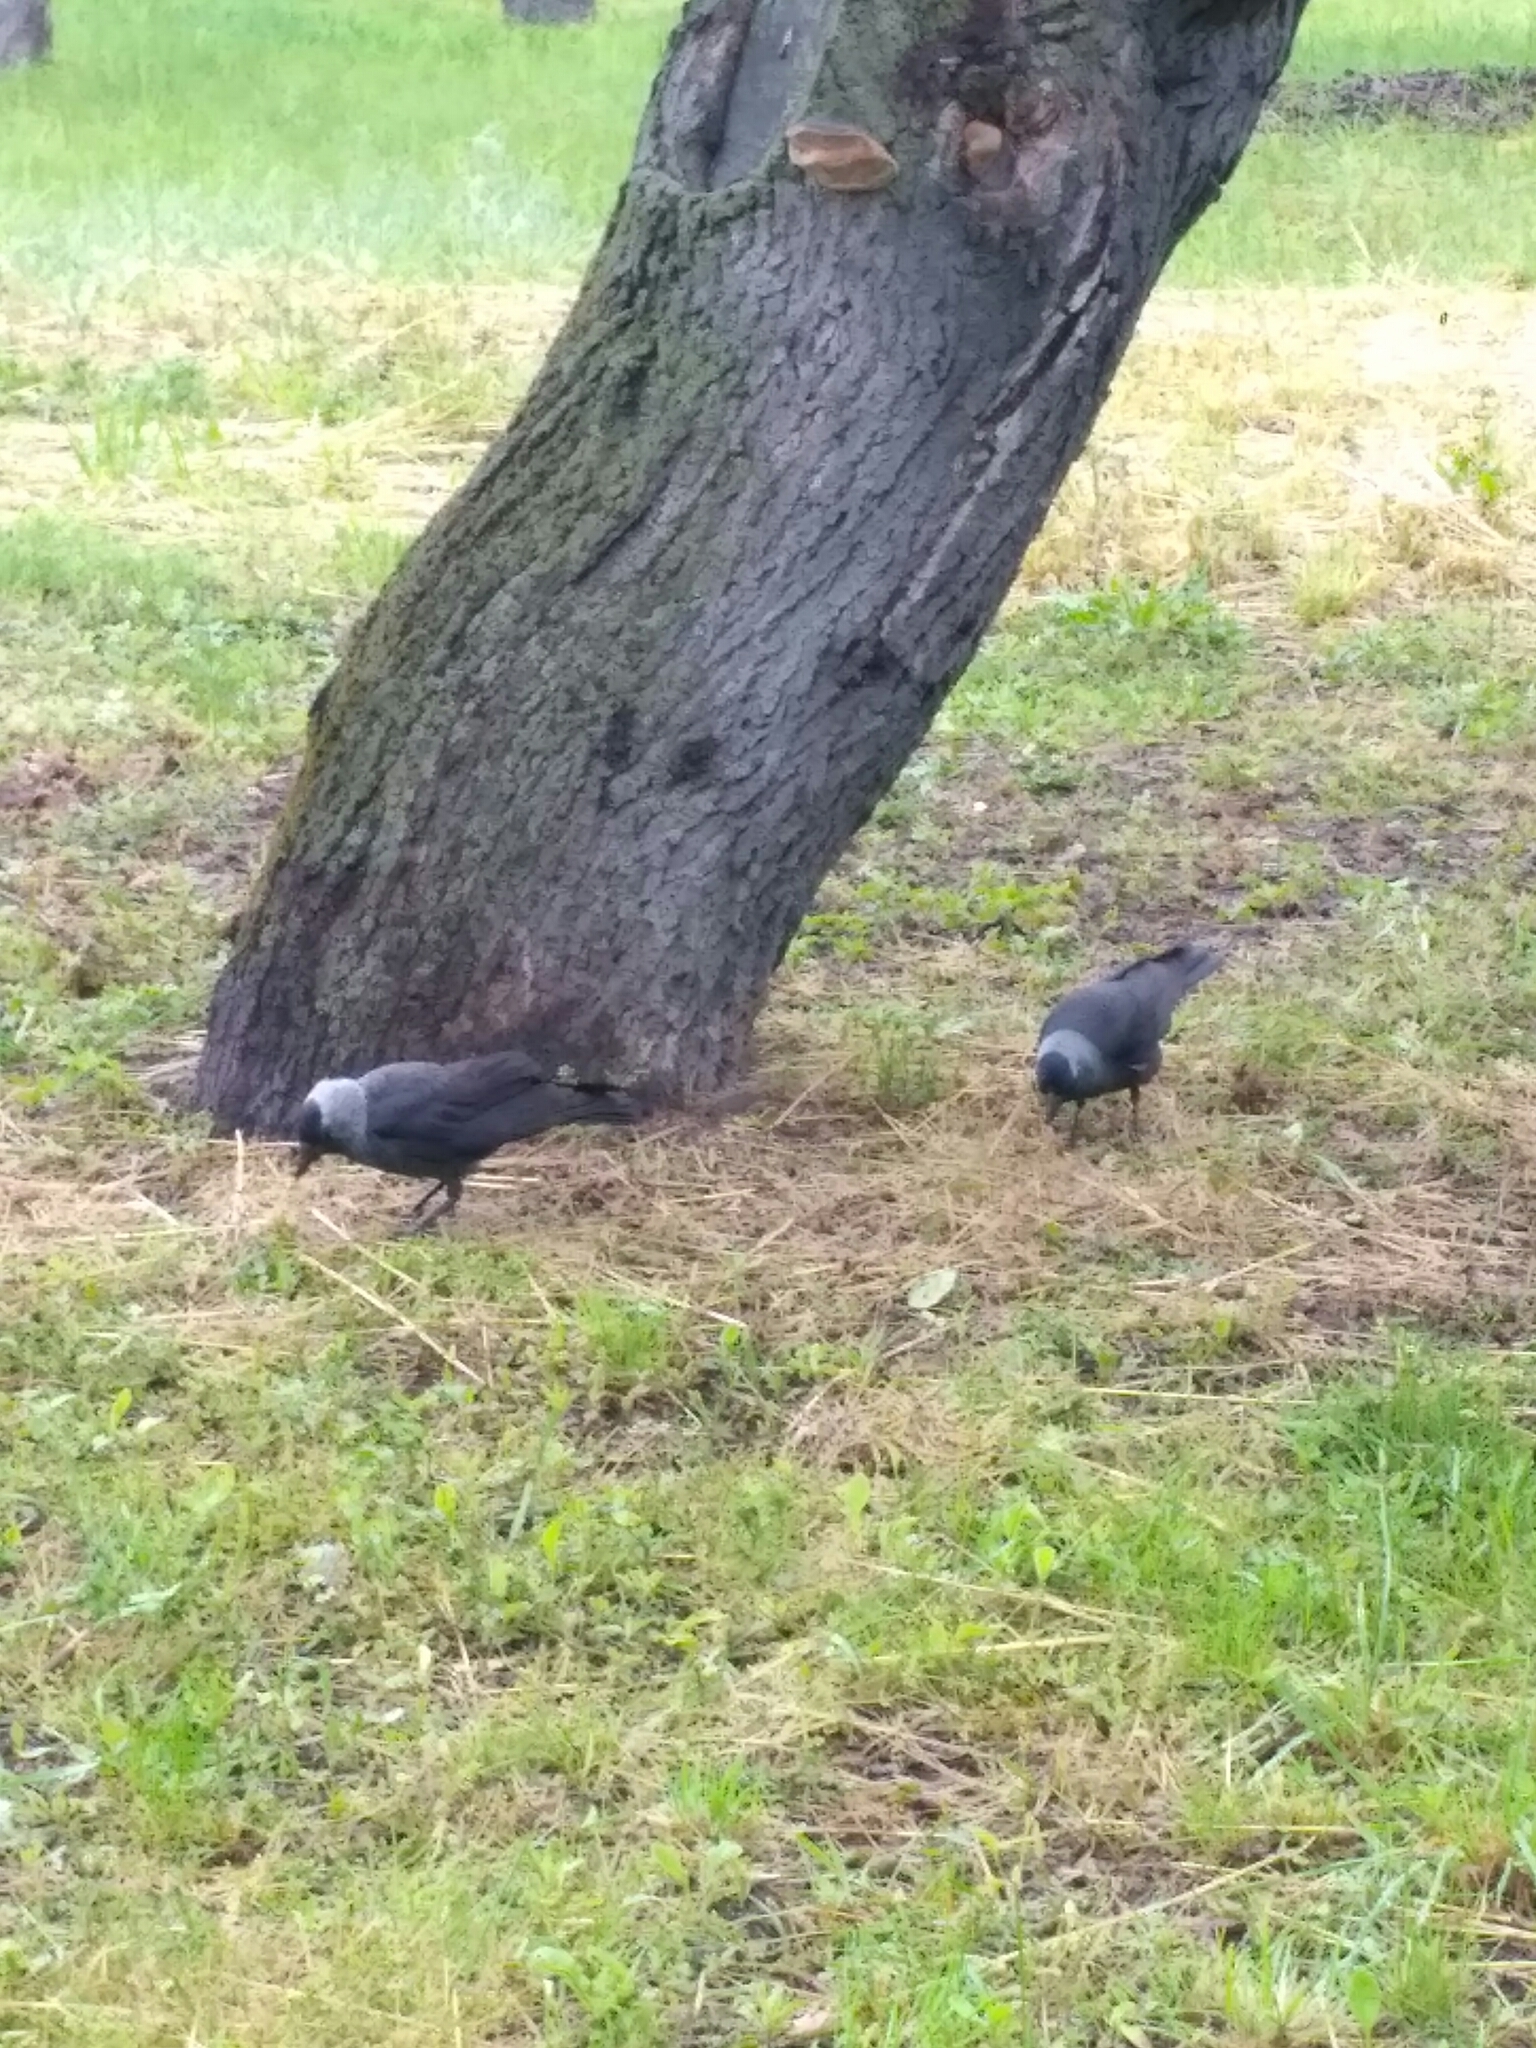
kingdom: Animalia
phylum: Chordata
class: Aves
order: Passeriformes
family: Corvidae
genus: Coloeus
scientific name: Coloeus monedula
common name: Western jackdaw
